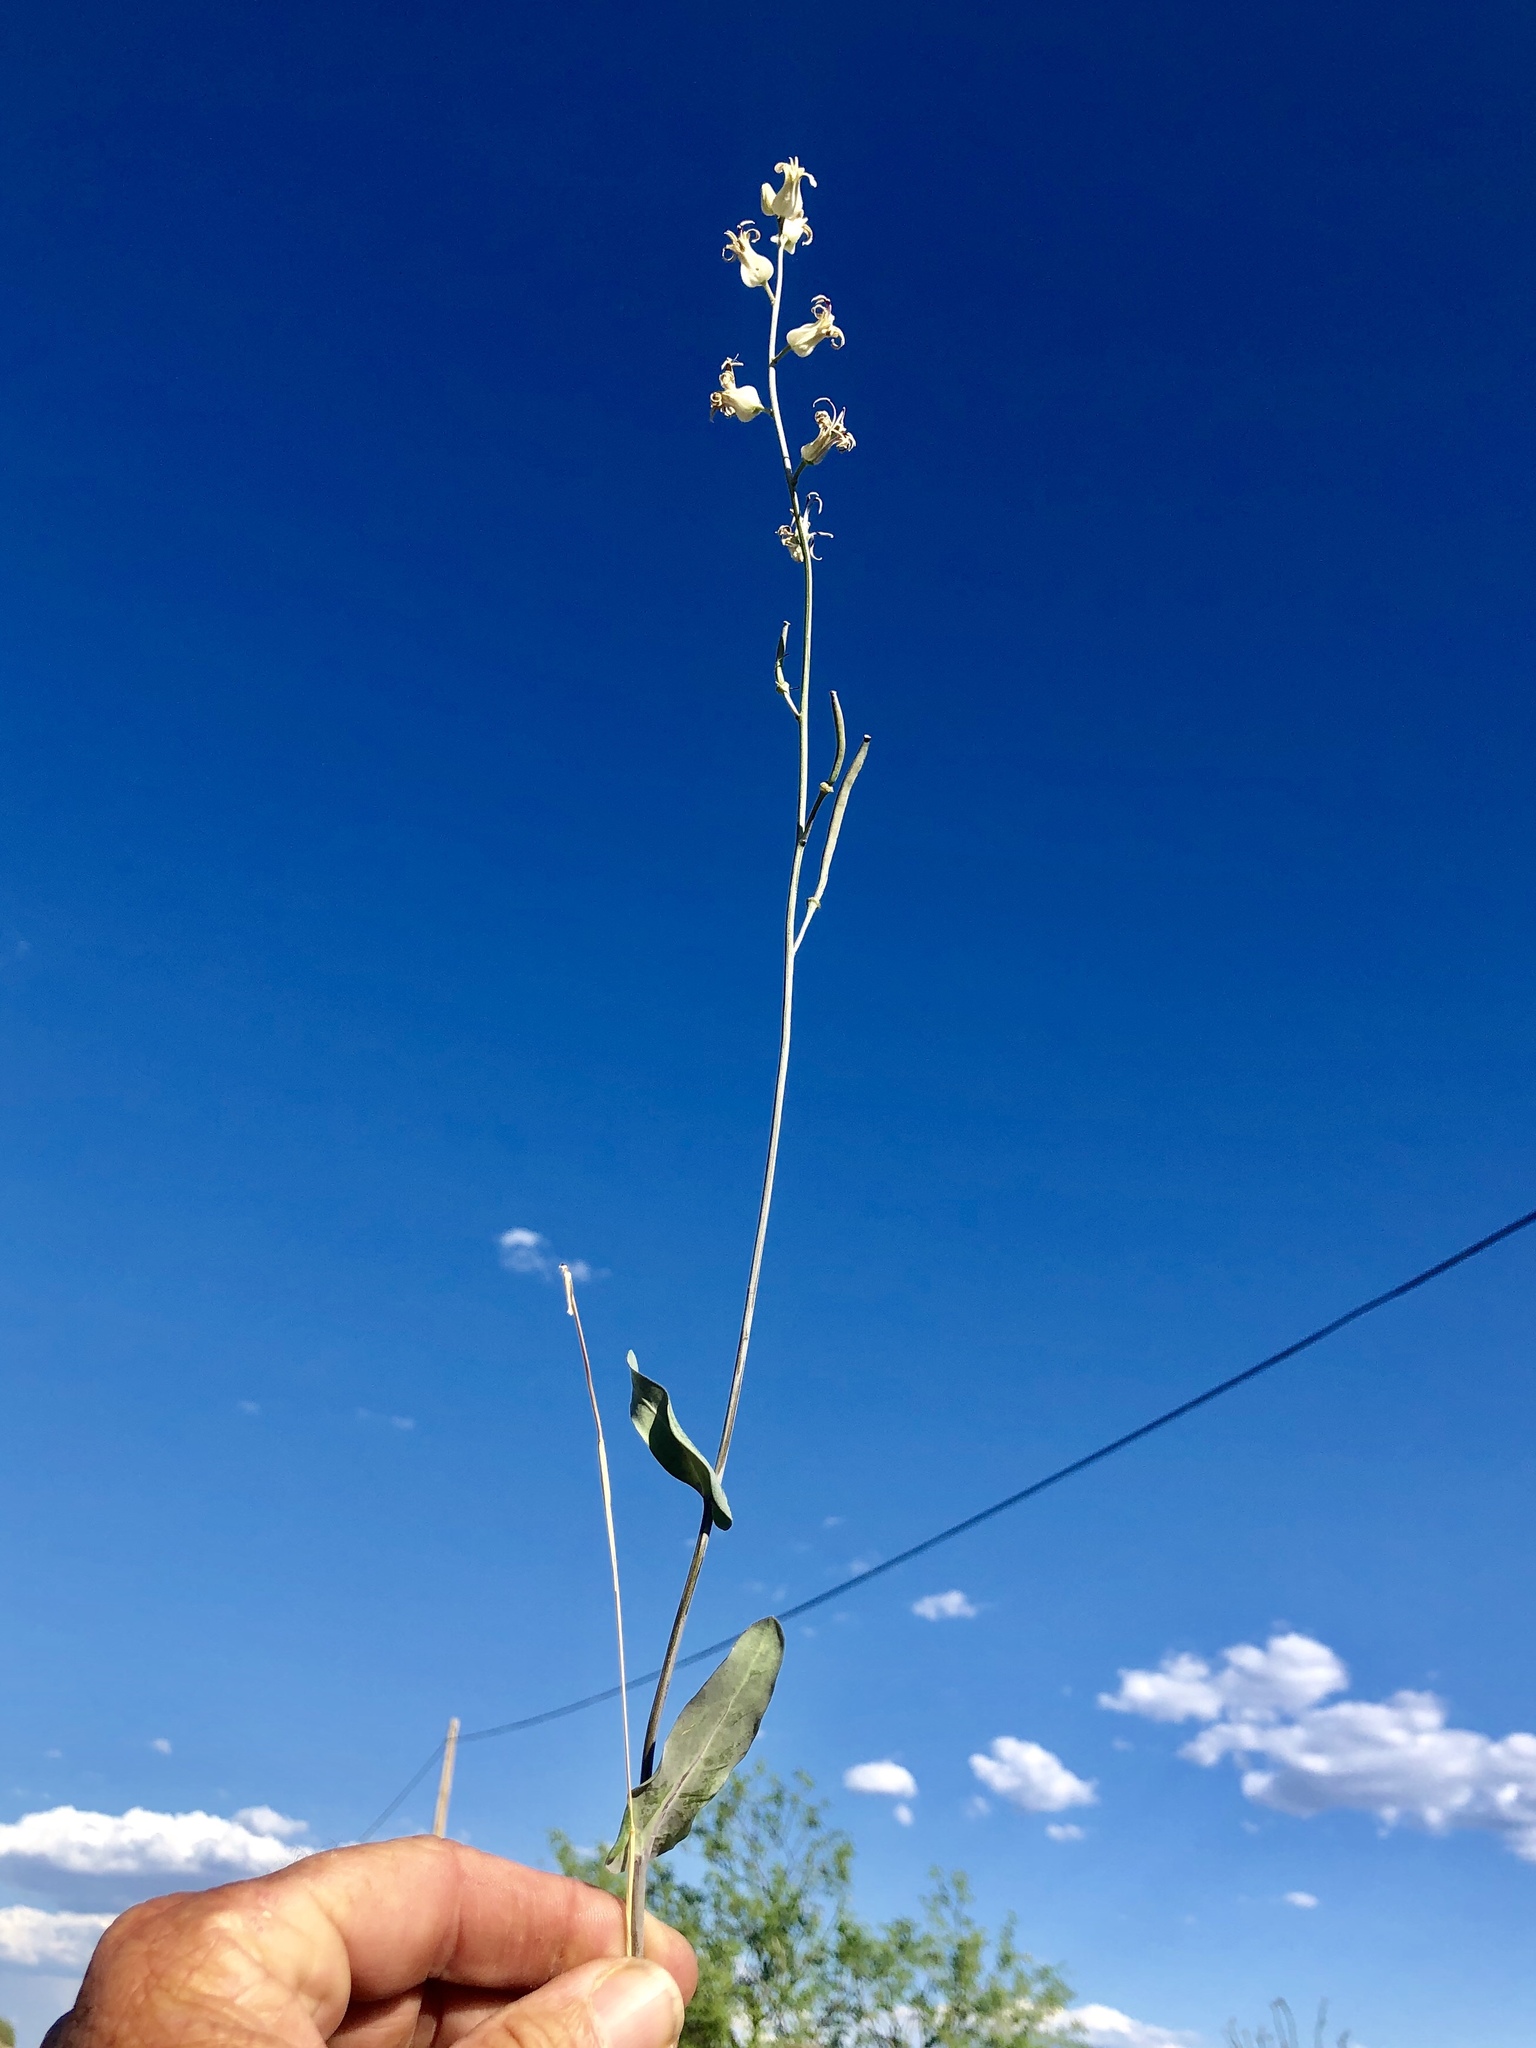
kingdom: Plantae
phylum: Tracheophyta
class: Magnoliopsida
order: Brassicales
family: Brassicaceae
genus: Streptanthus
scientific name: Streptanthus carinatus
